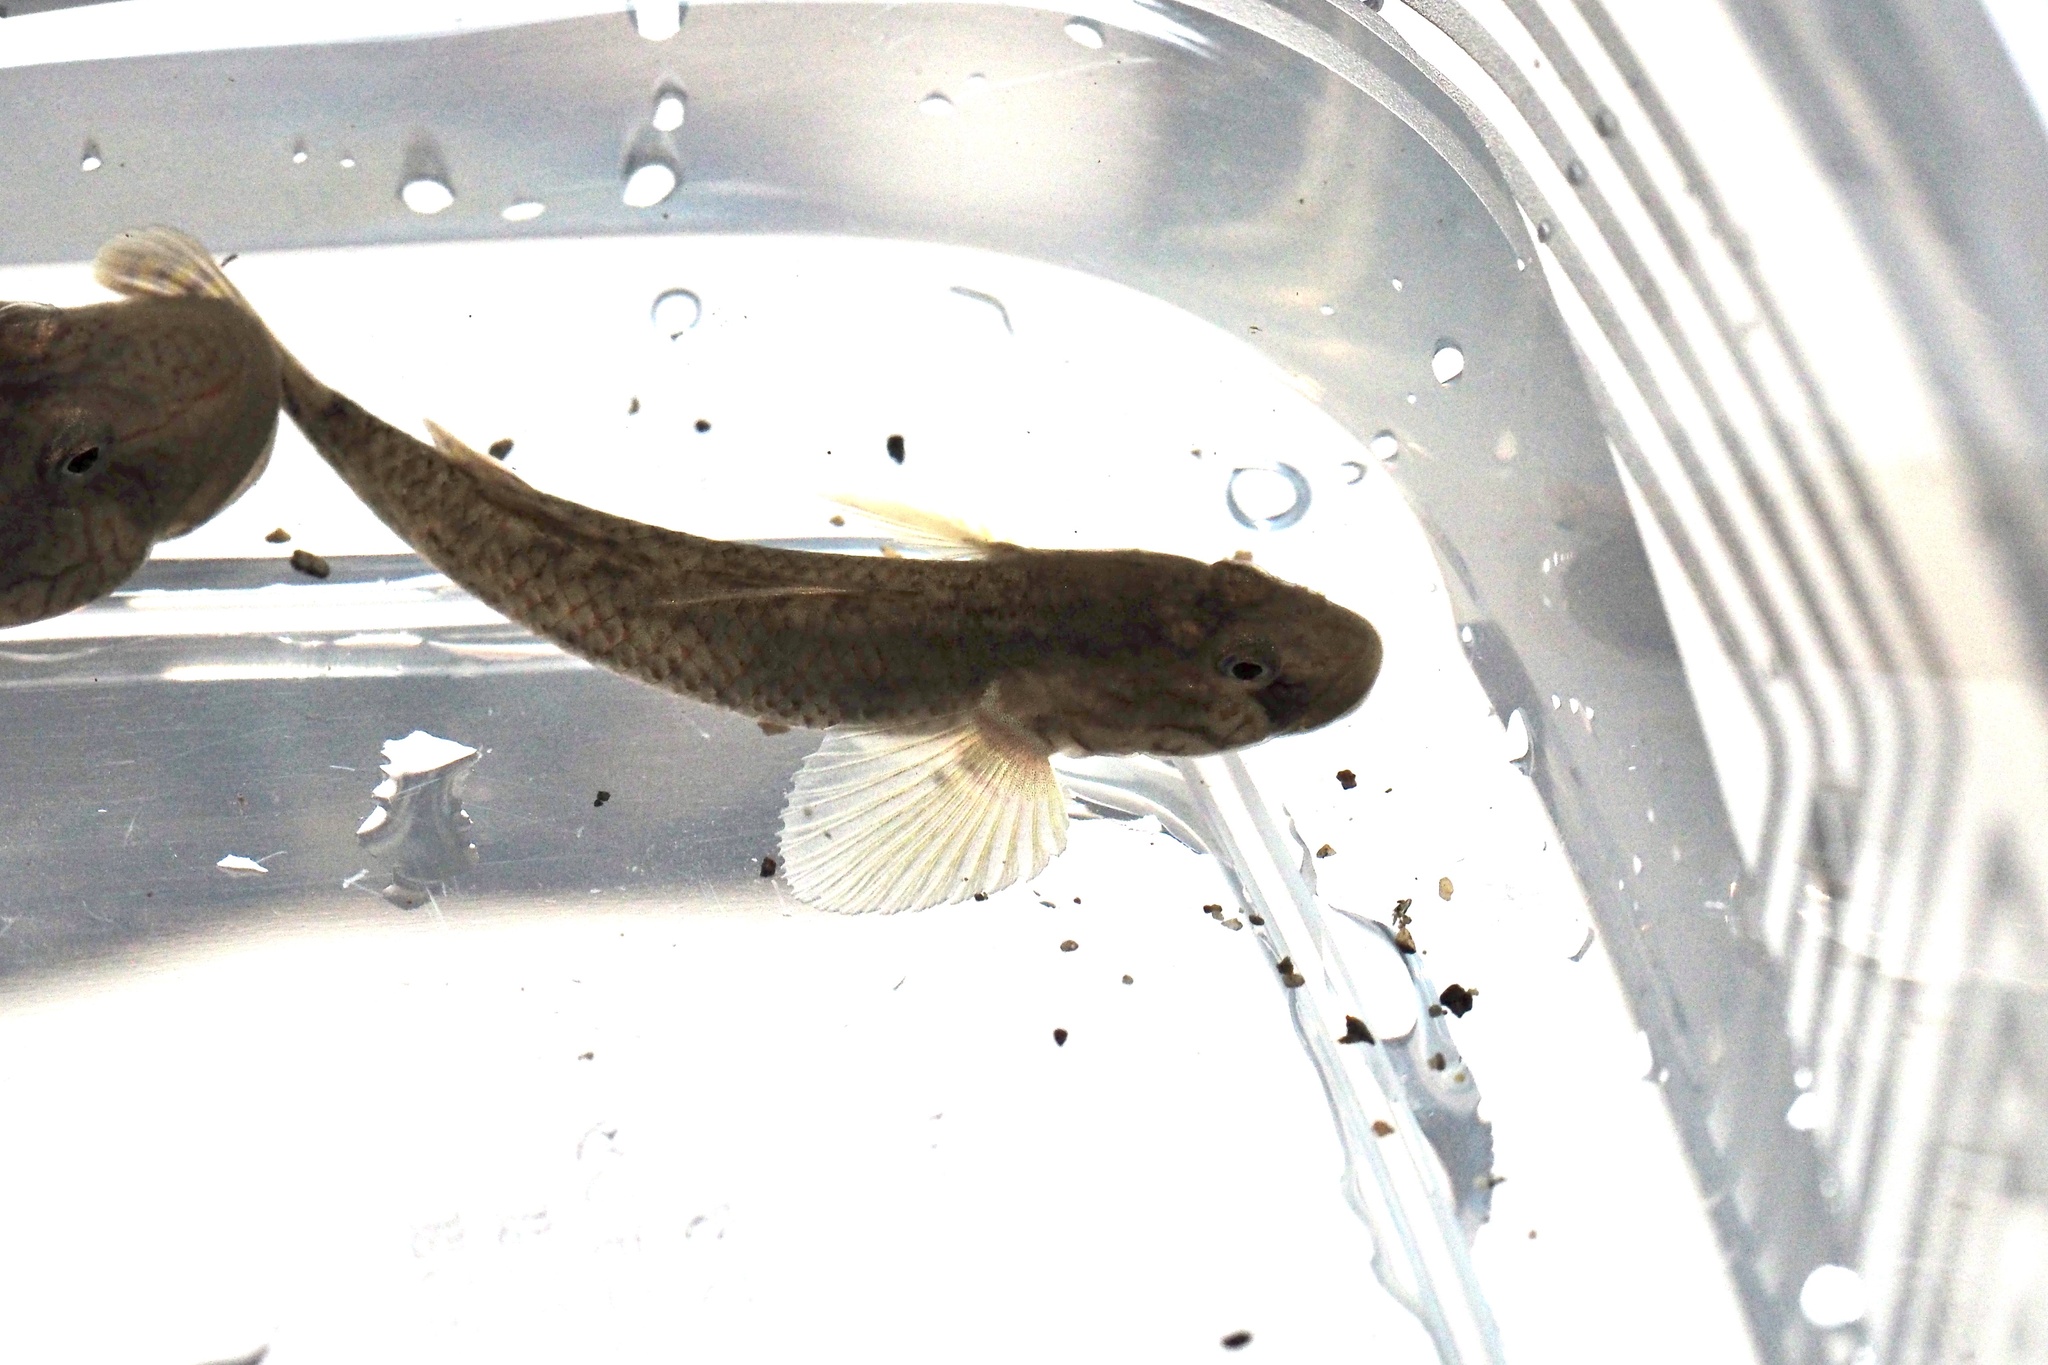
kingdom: Animalia
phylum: Chordata
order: Perciformes
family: Gobiidae
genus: Rhinogobius
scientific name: Rhinogobius nagoyae
